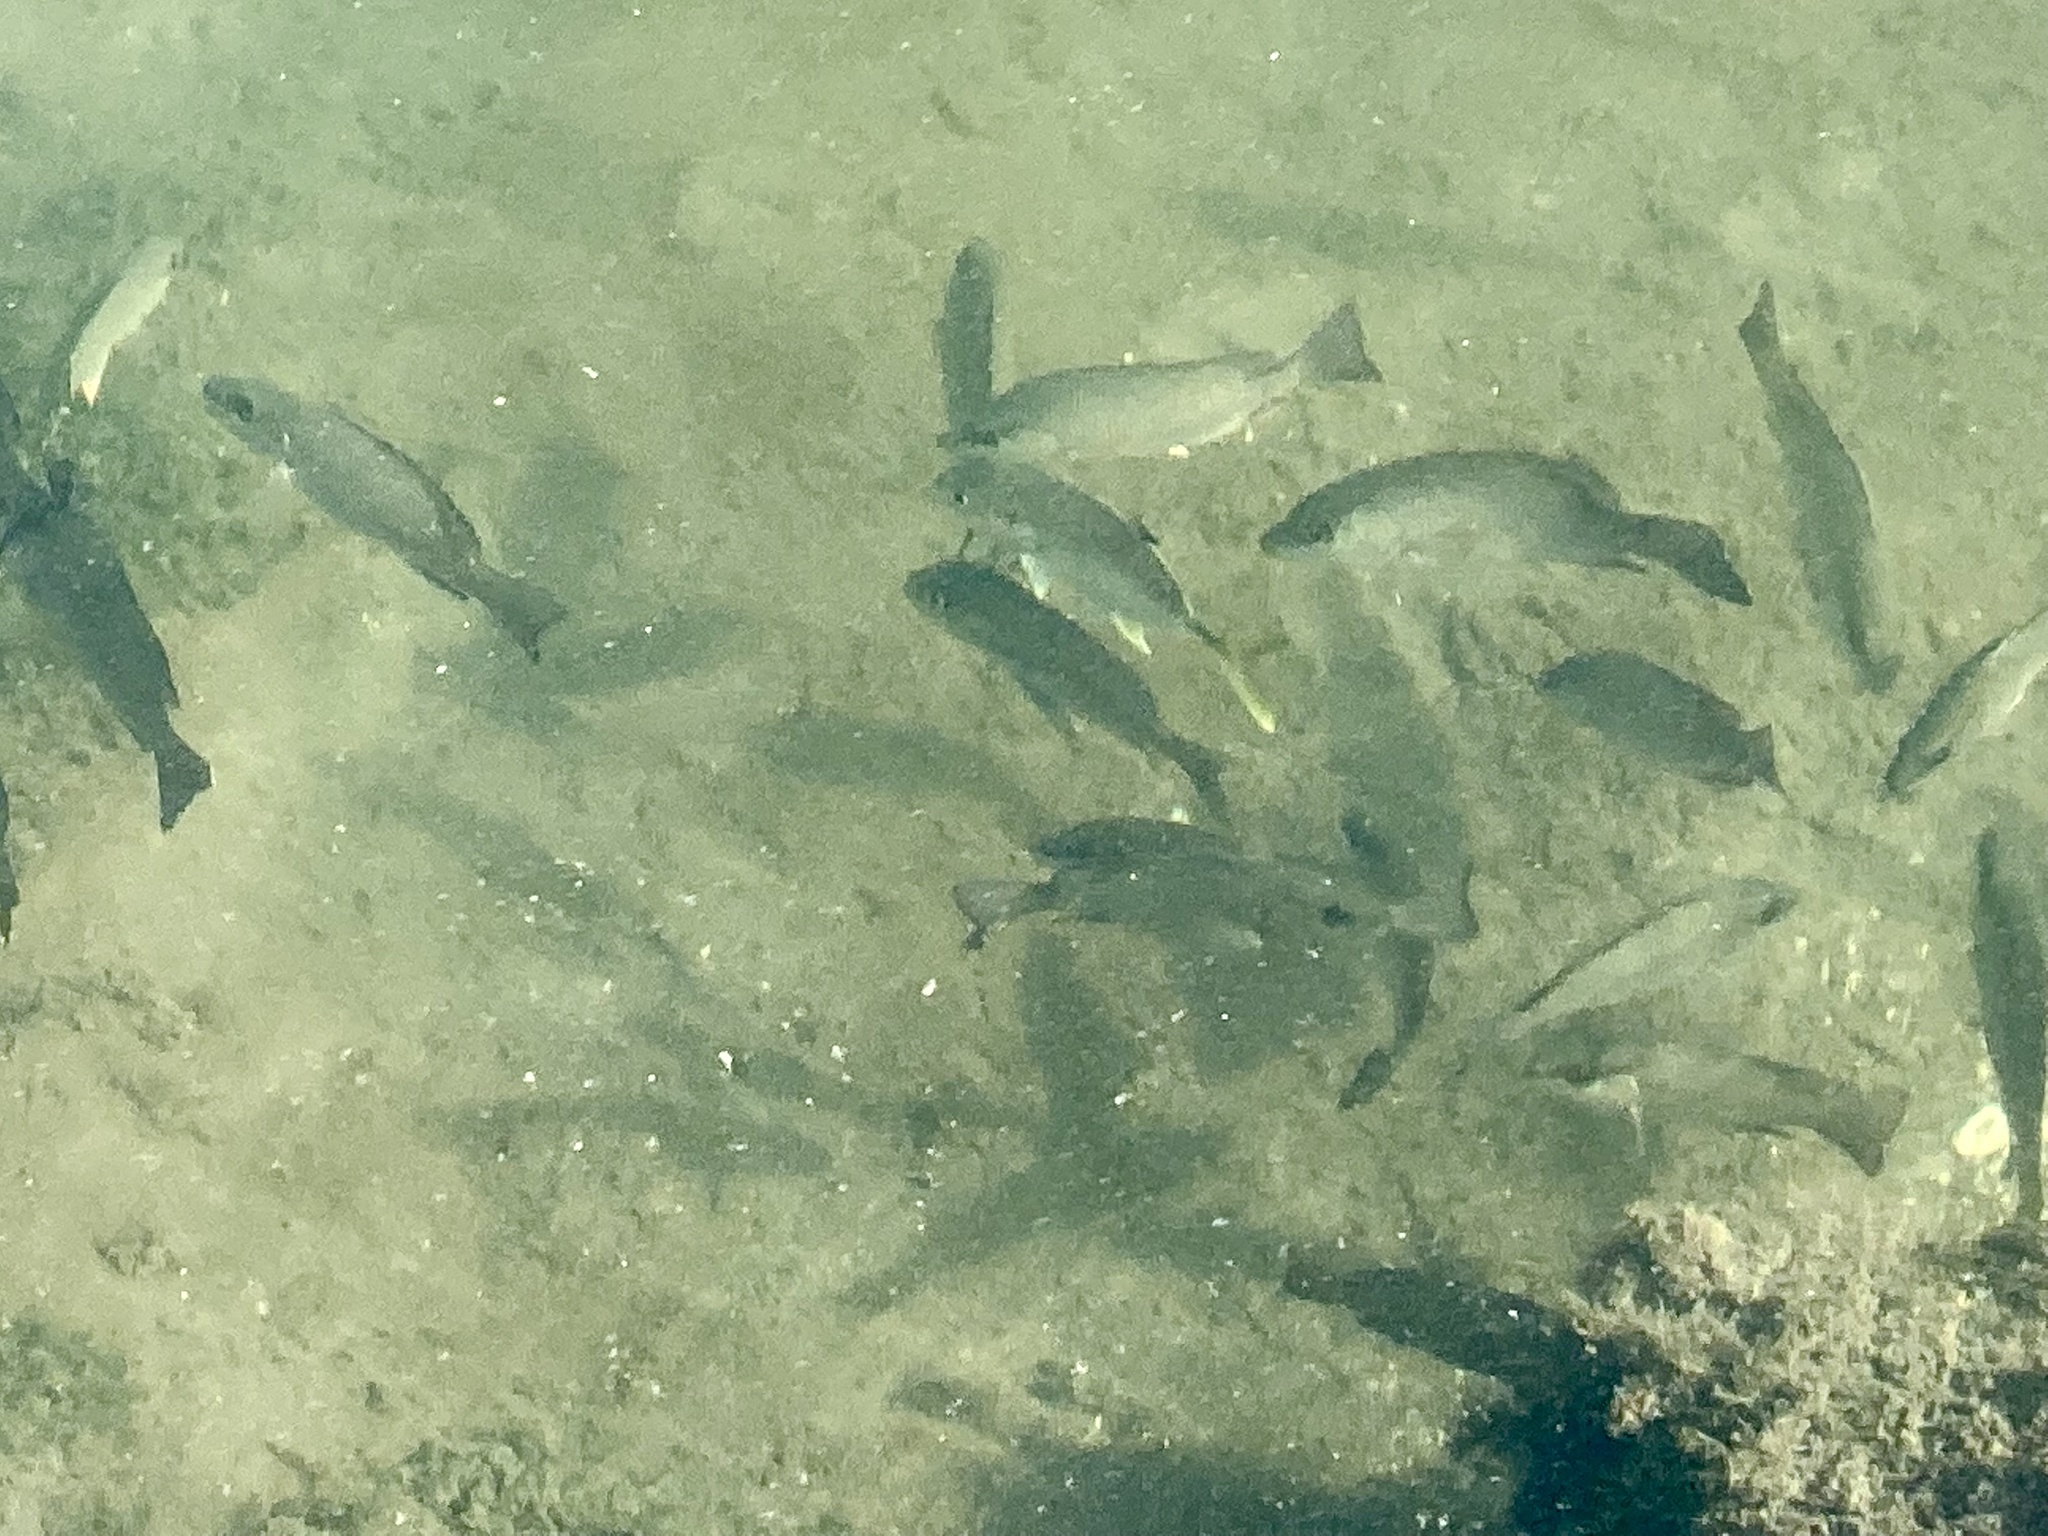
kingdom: Animalia
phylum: Chordata
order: Perciformes
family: Lutjanidae
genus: Lutjanus
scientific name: Lutjanus griseus
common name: Gray snapper
